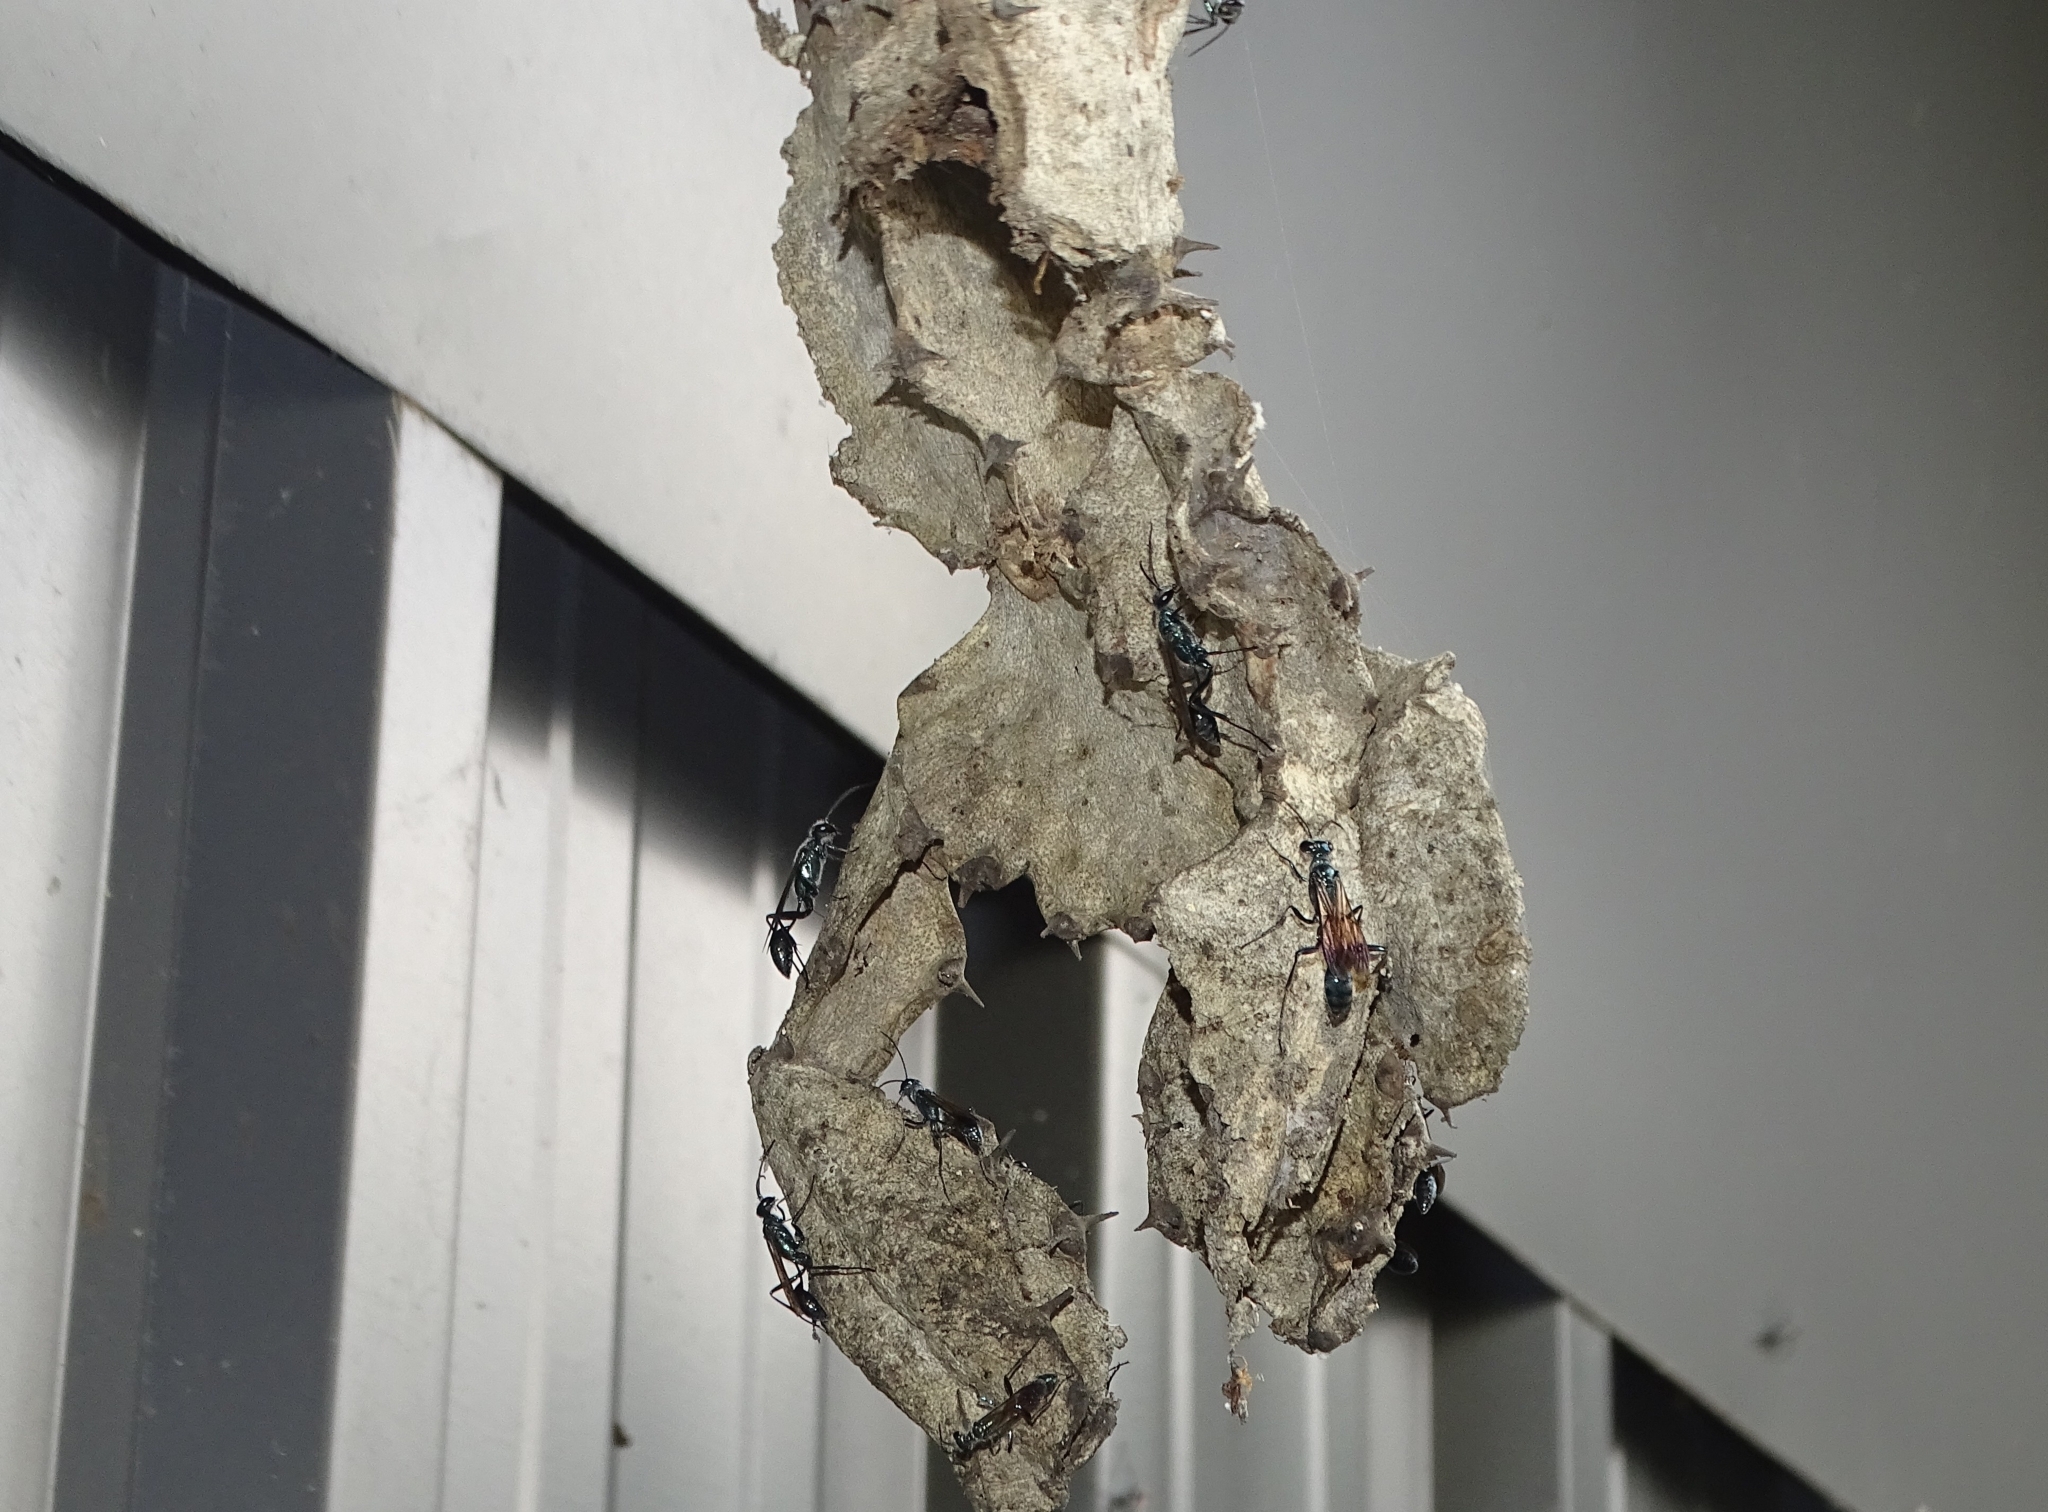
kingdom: Animalia
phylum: Arthropoda
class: Insecta
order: Hymenoptera
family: Sphecidae
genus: Chalybion
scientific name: Chalybion bengalense
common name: Mud dauber
